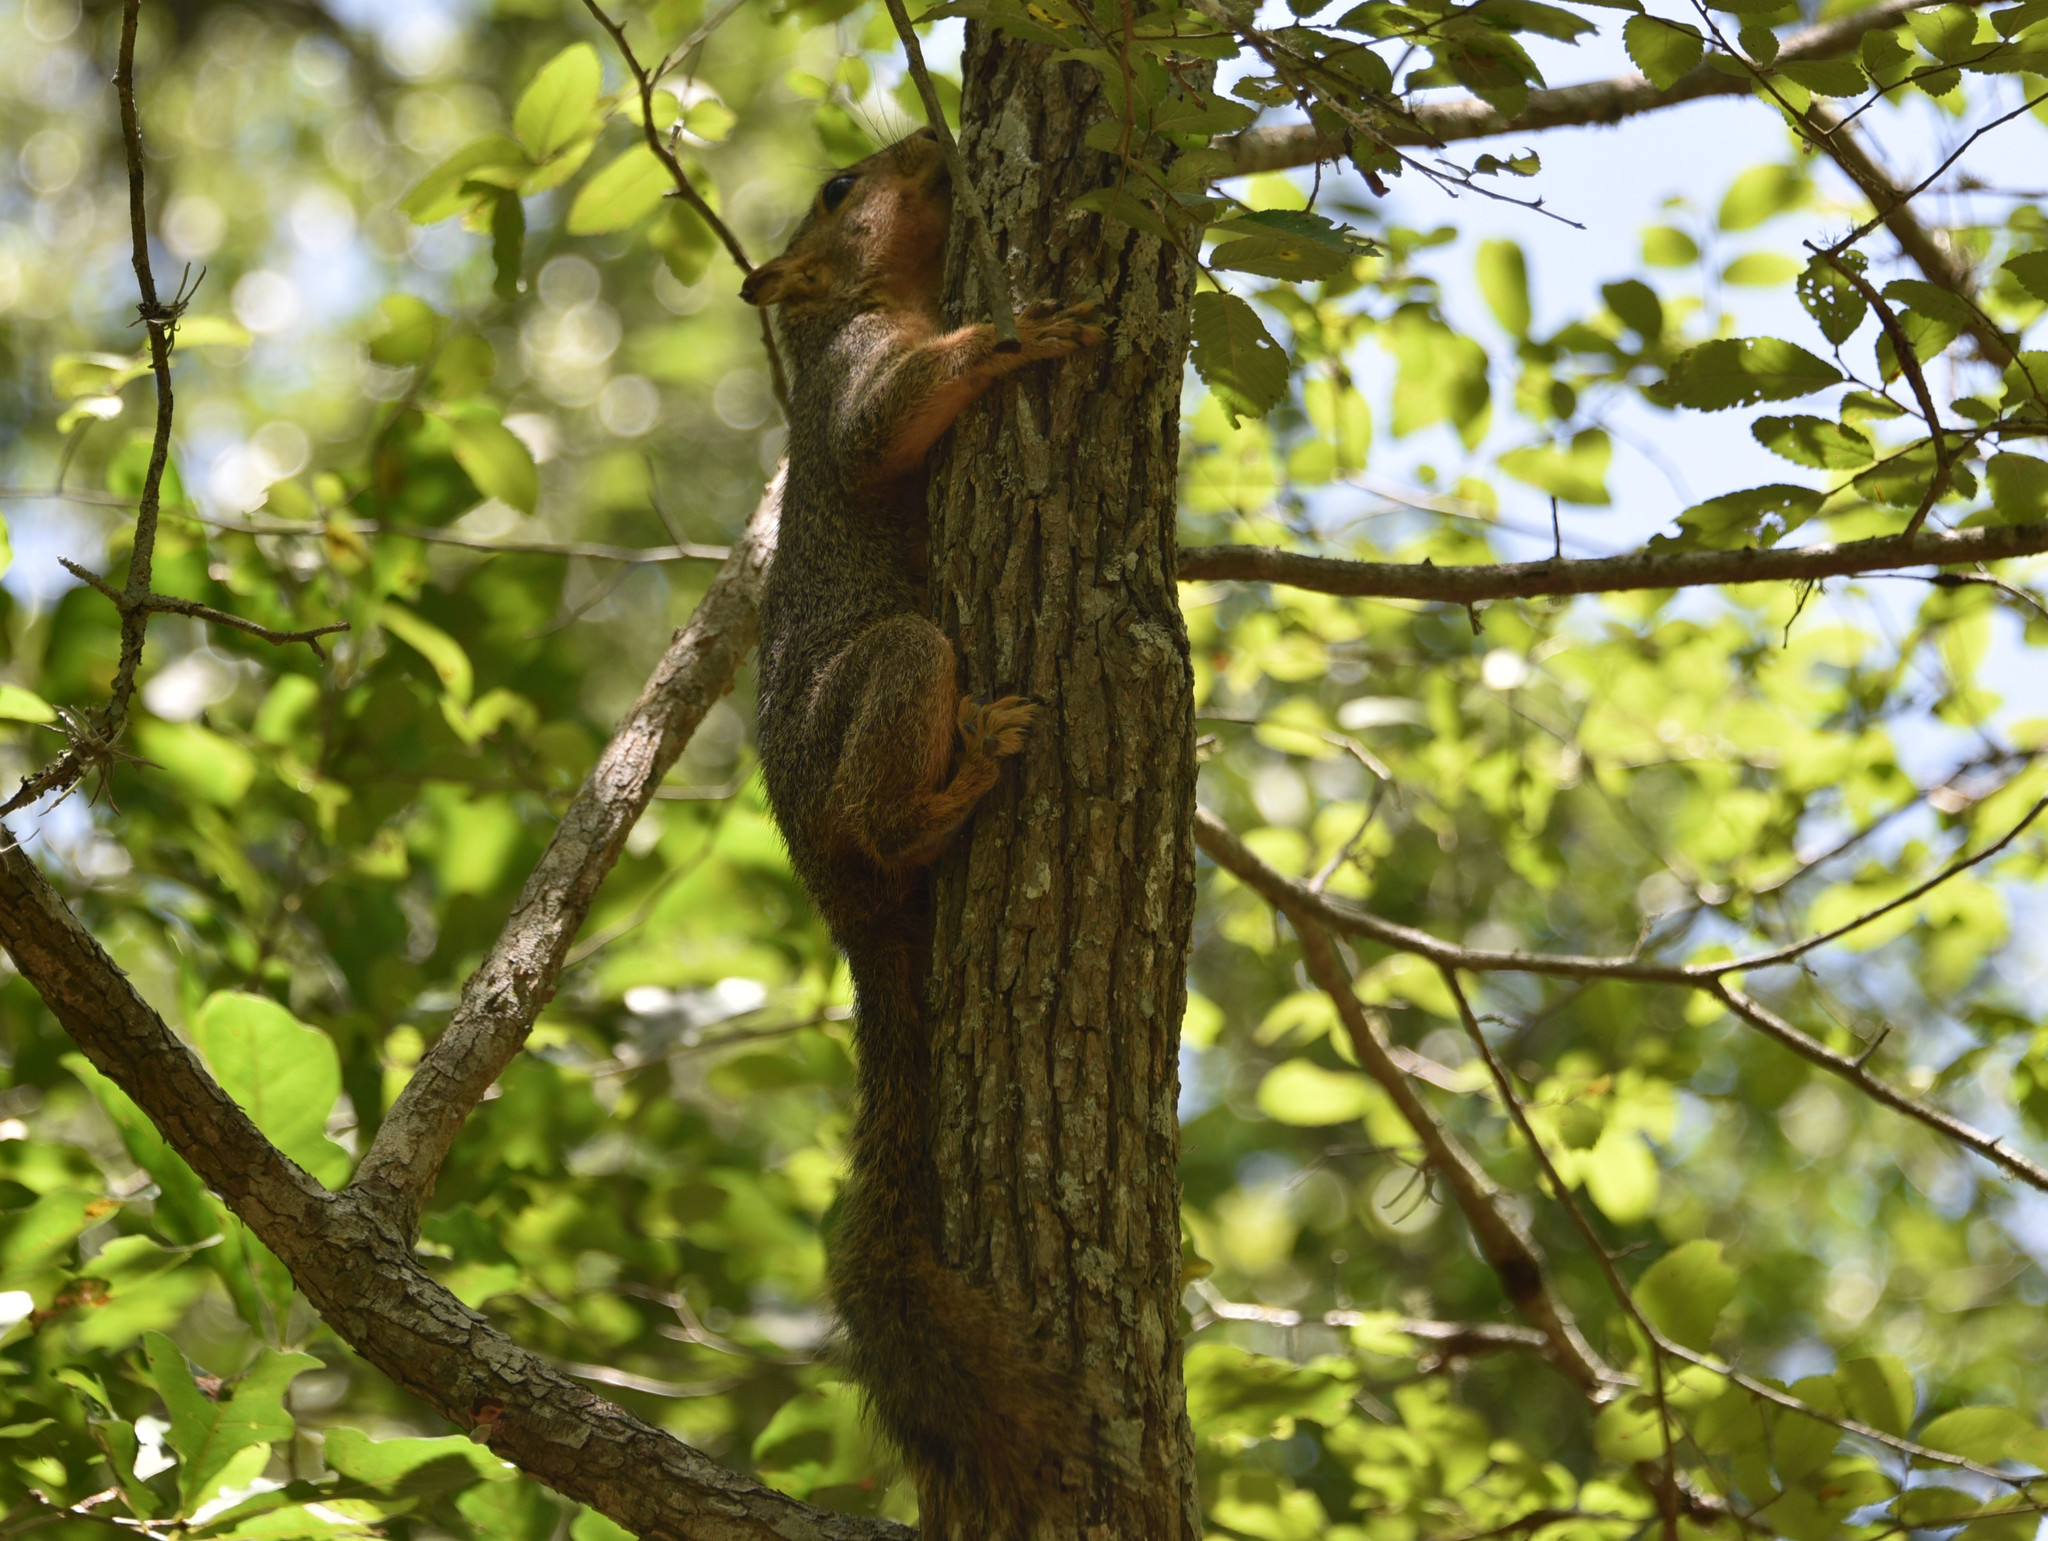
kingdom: Animalia
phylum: Chordata
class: Mammalia
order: Rodentia
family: Sciuridae
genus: Sciurus
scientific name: Sciurus niger
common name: Fox squirrel
